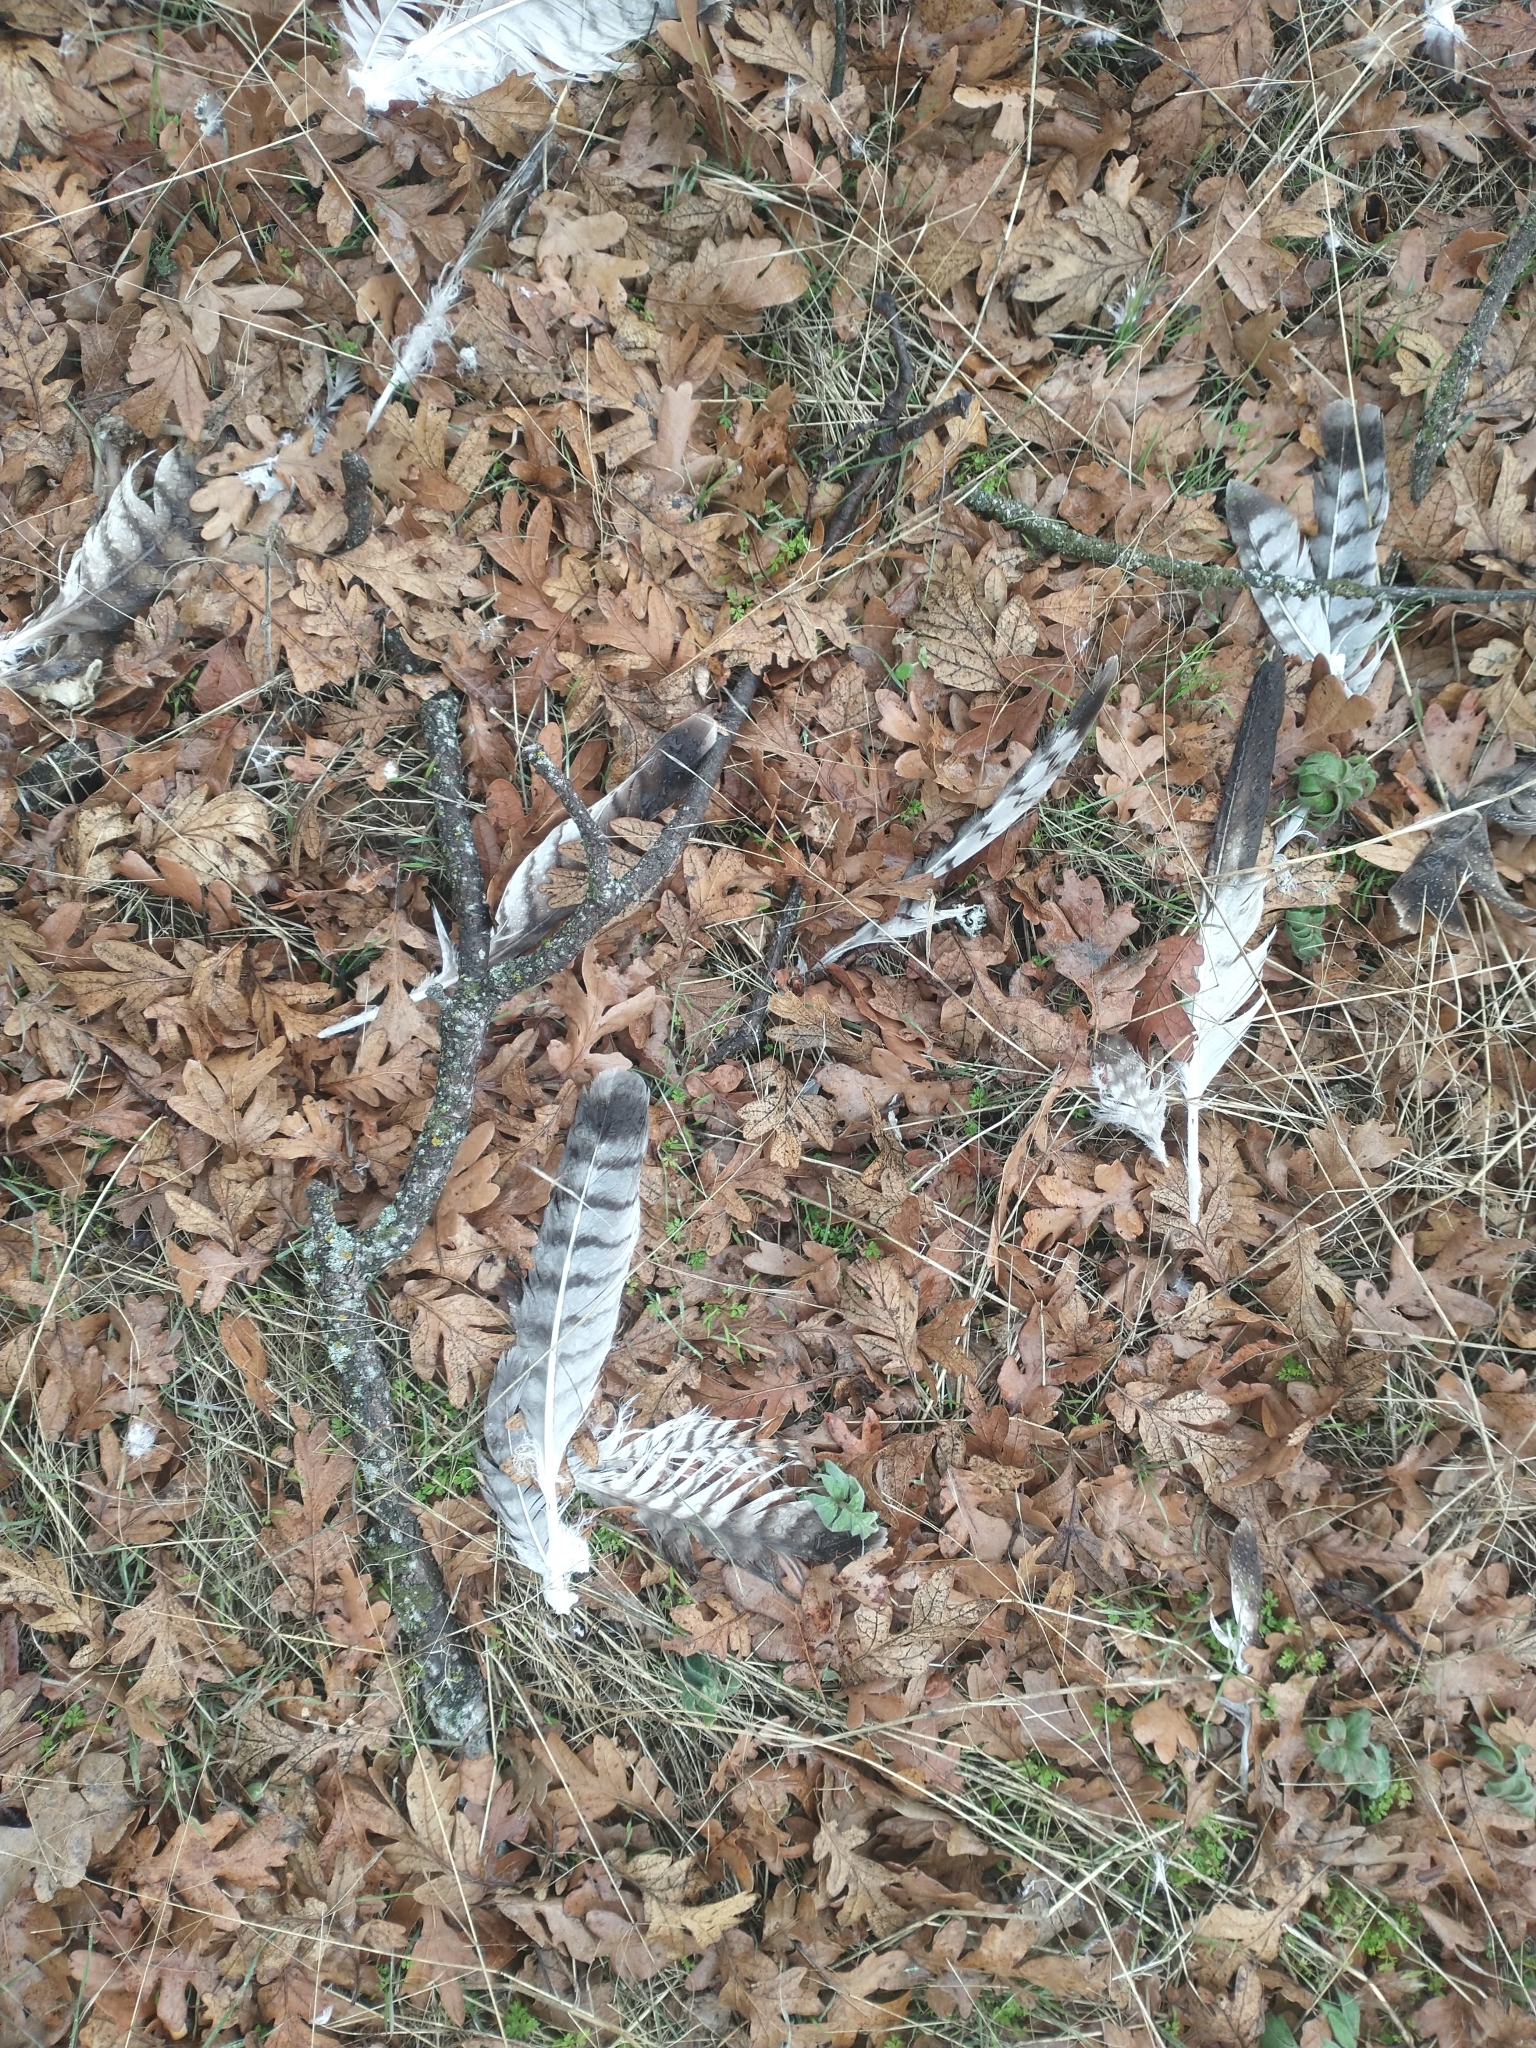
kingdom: Animalia
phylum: Chordata
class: Aves
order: Accipitriformes
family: Accipitridae
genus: Buteo
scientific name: Buteo jamaicensis
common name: Red-tailed hawk
